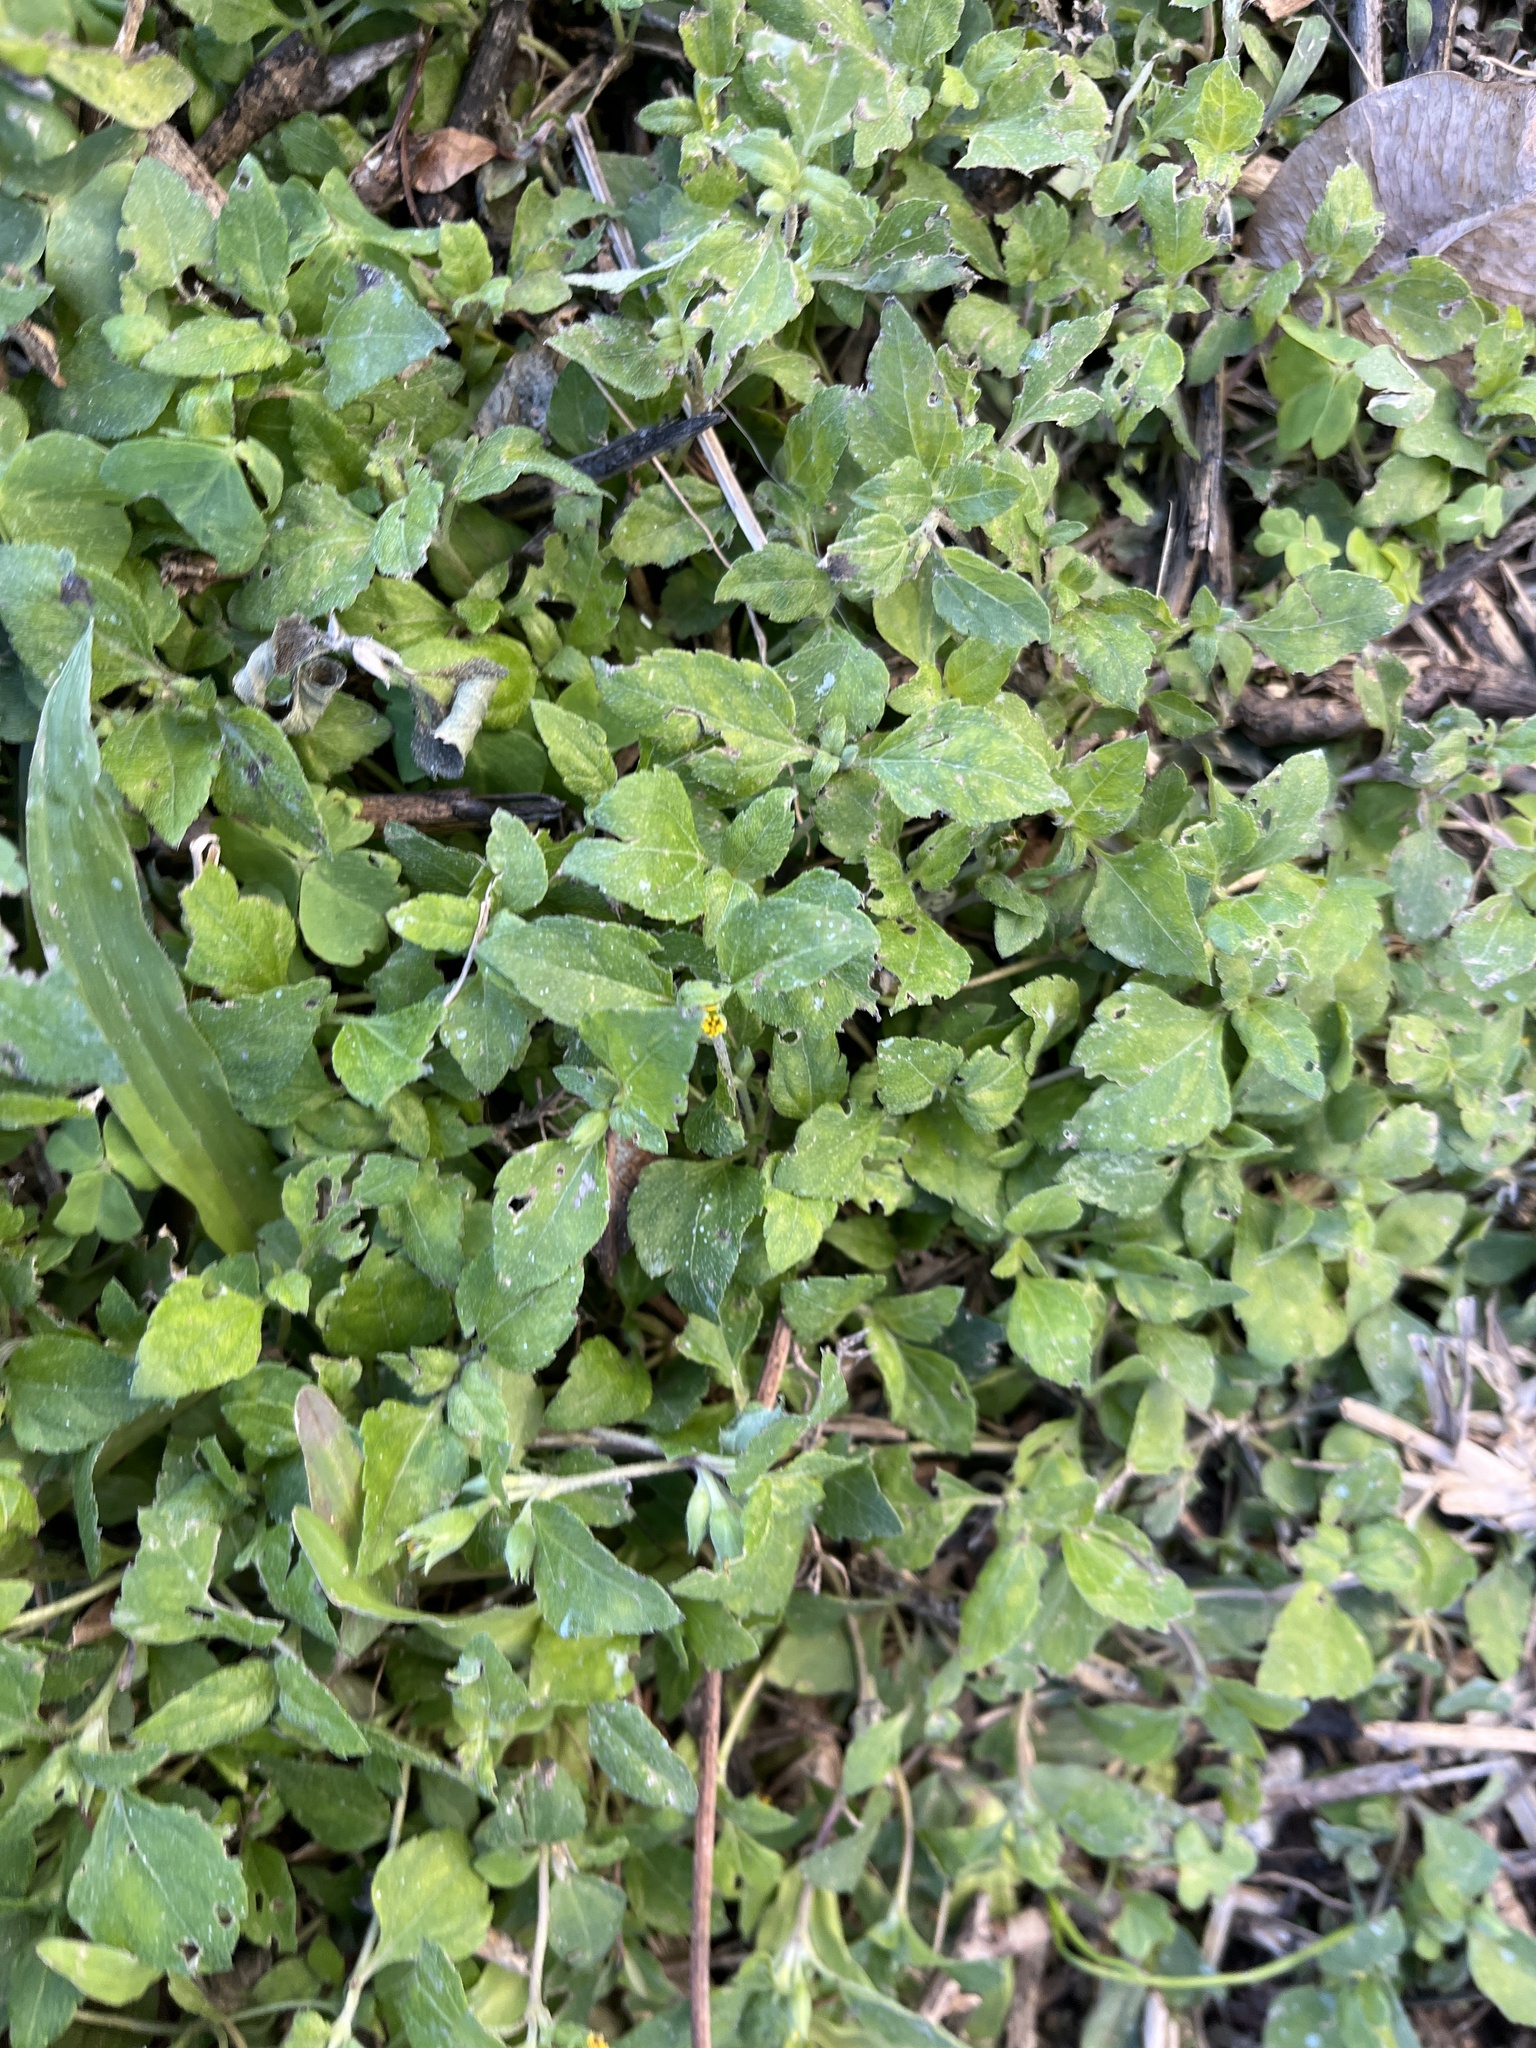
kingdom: Plantae
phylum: Tracheophyta
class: Magnoliopsida
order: Asterales
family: Asteraceae
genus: Calyptocarpus
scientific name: Calyptocarpus vialis
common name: Straggler daisy
